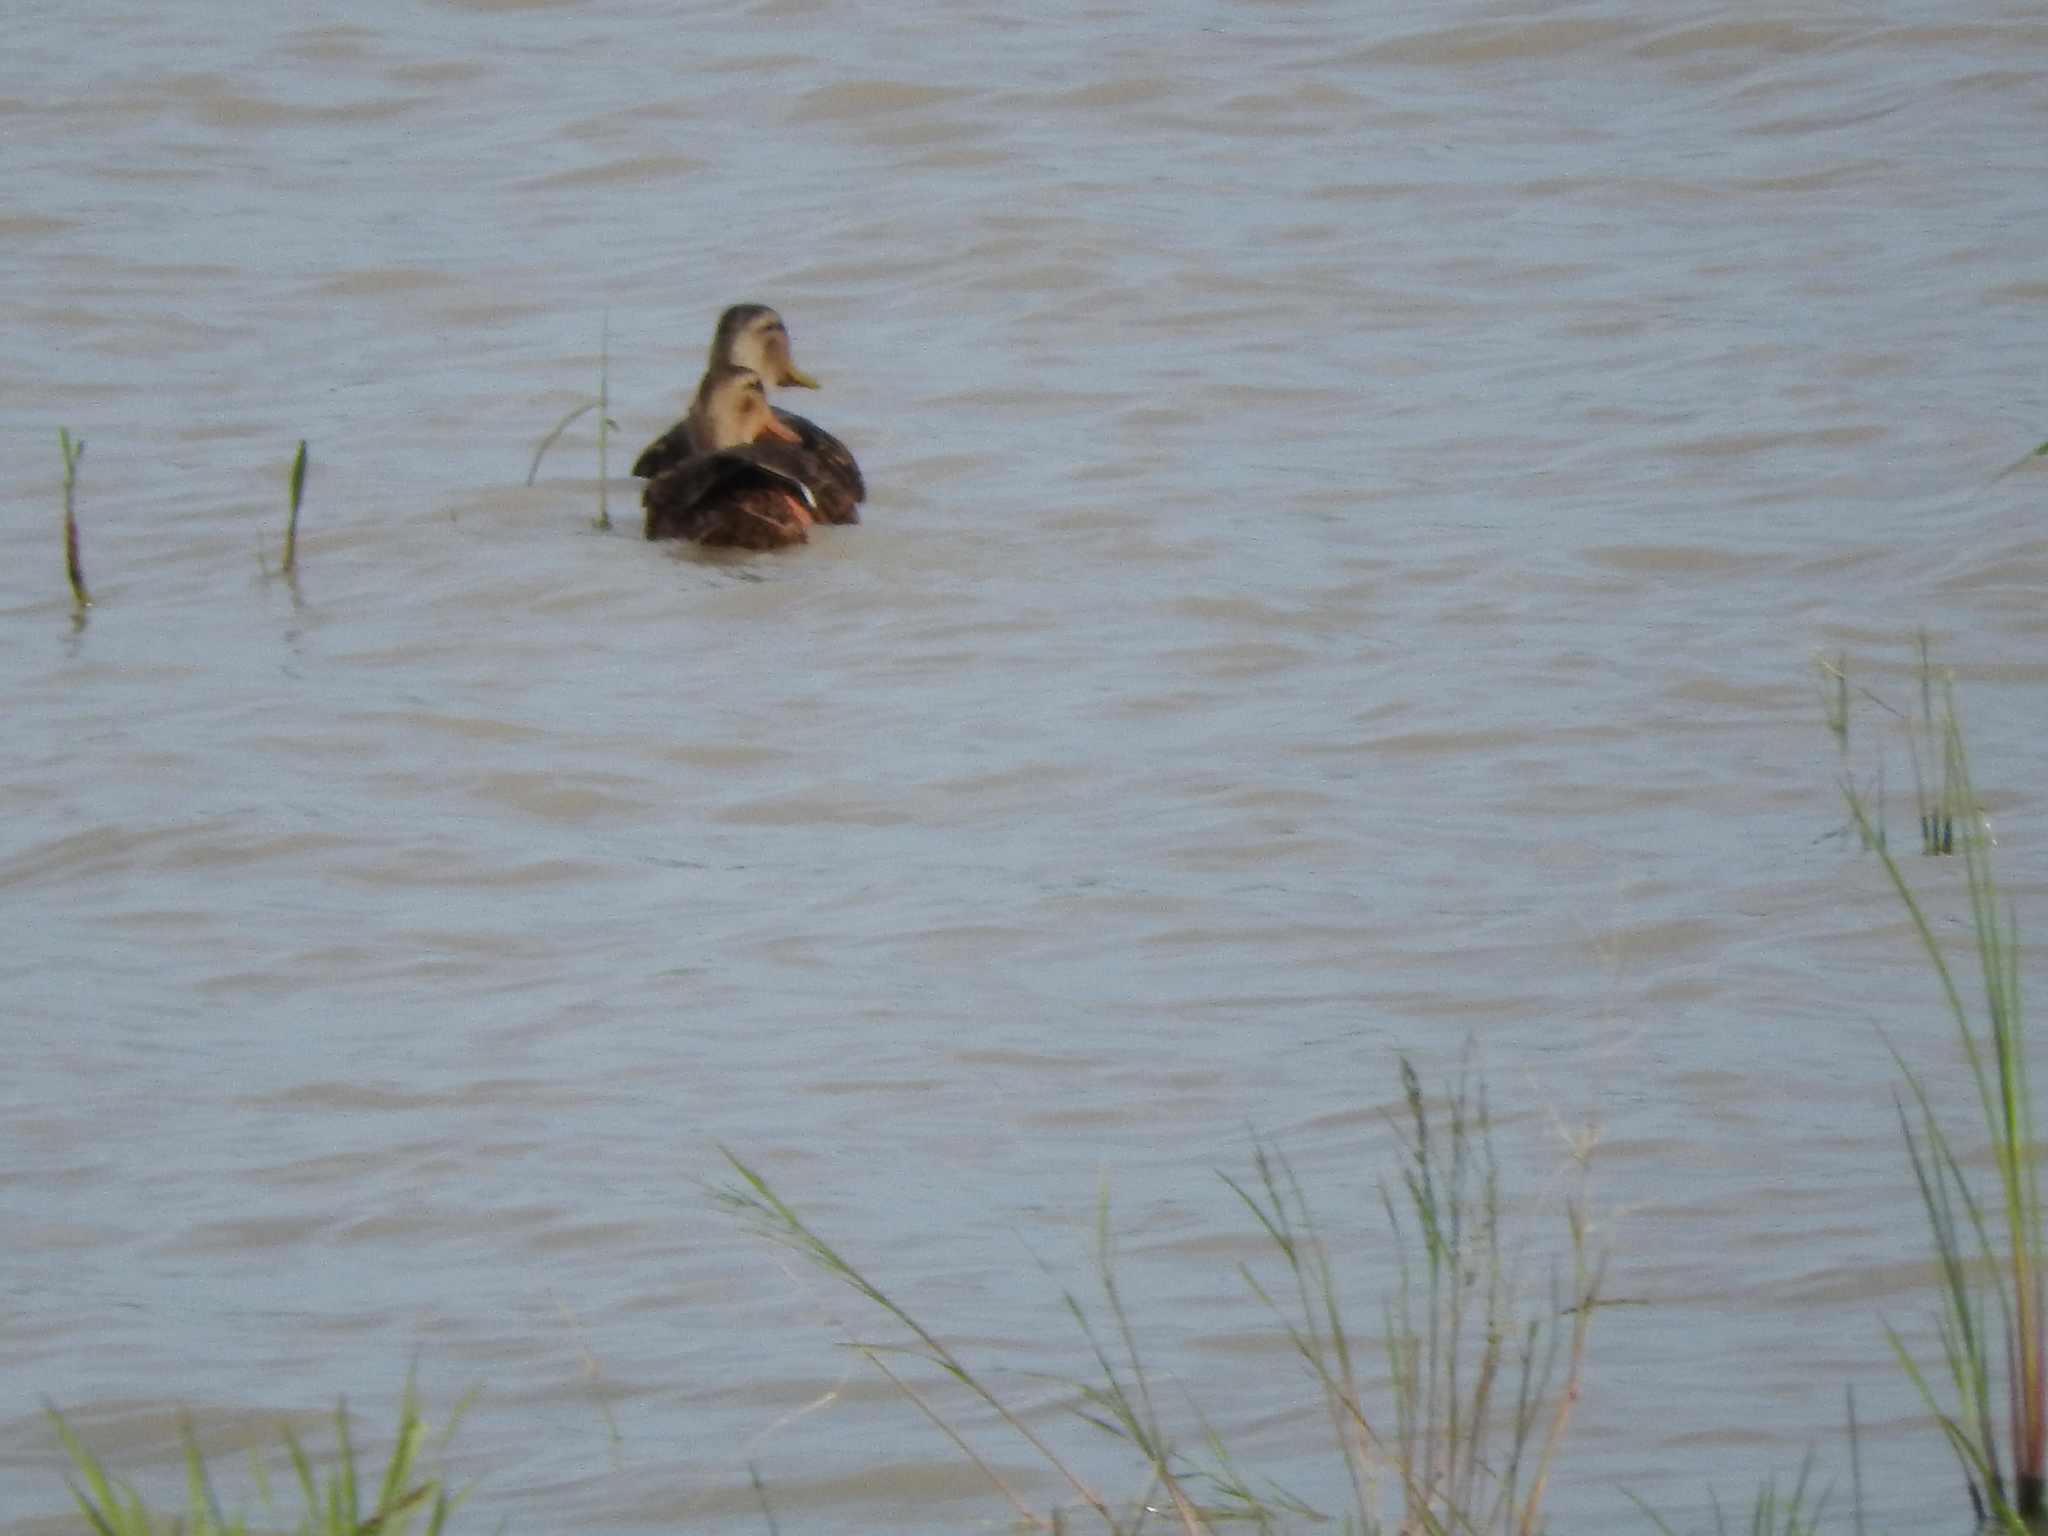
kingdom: Animalia
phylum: Chordata
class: Aves
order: Anseriformes
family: Anatidae
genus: Anas
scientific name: Anas diazi
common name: Mexican duck
